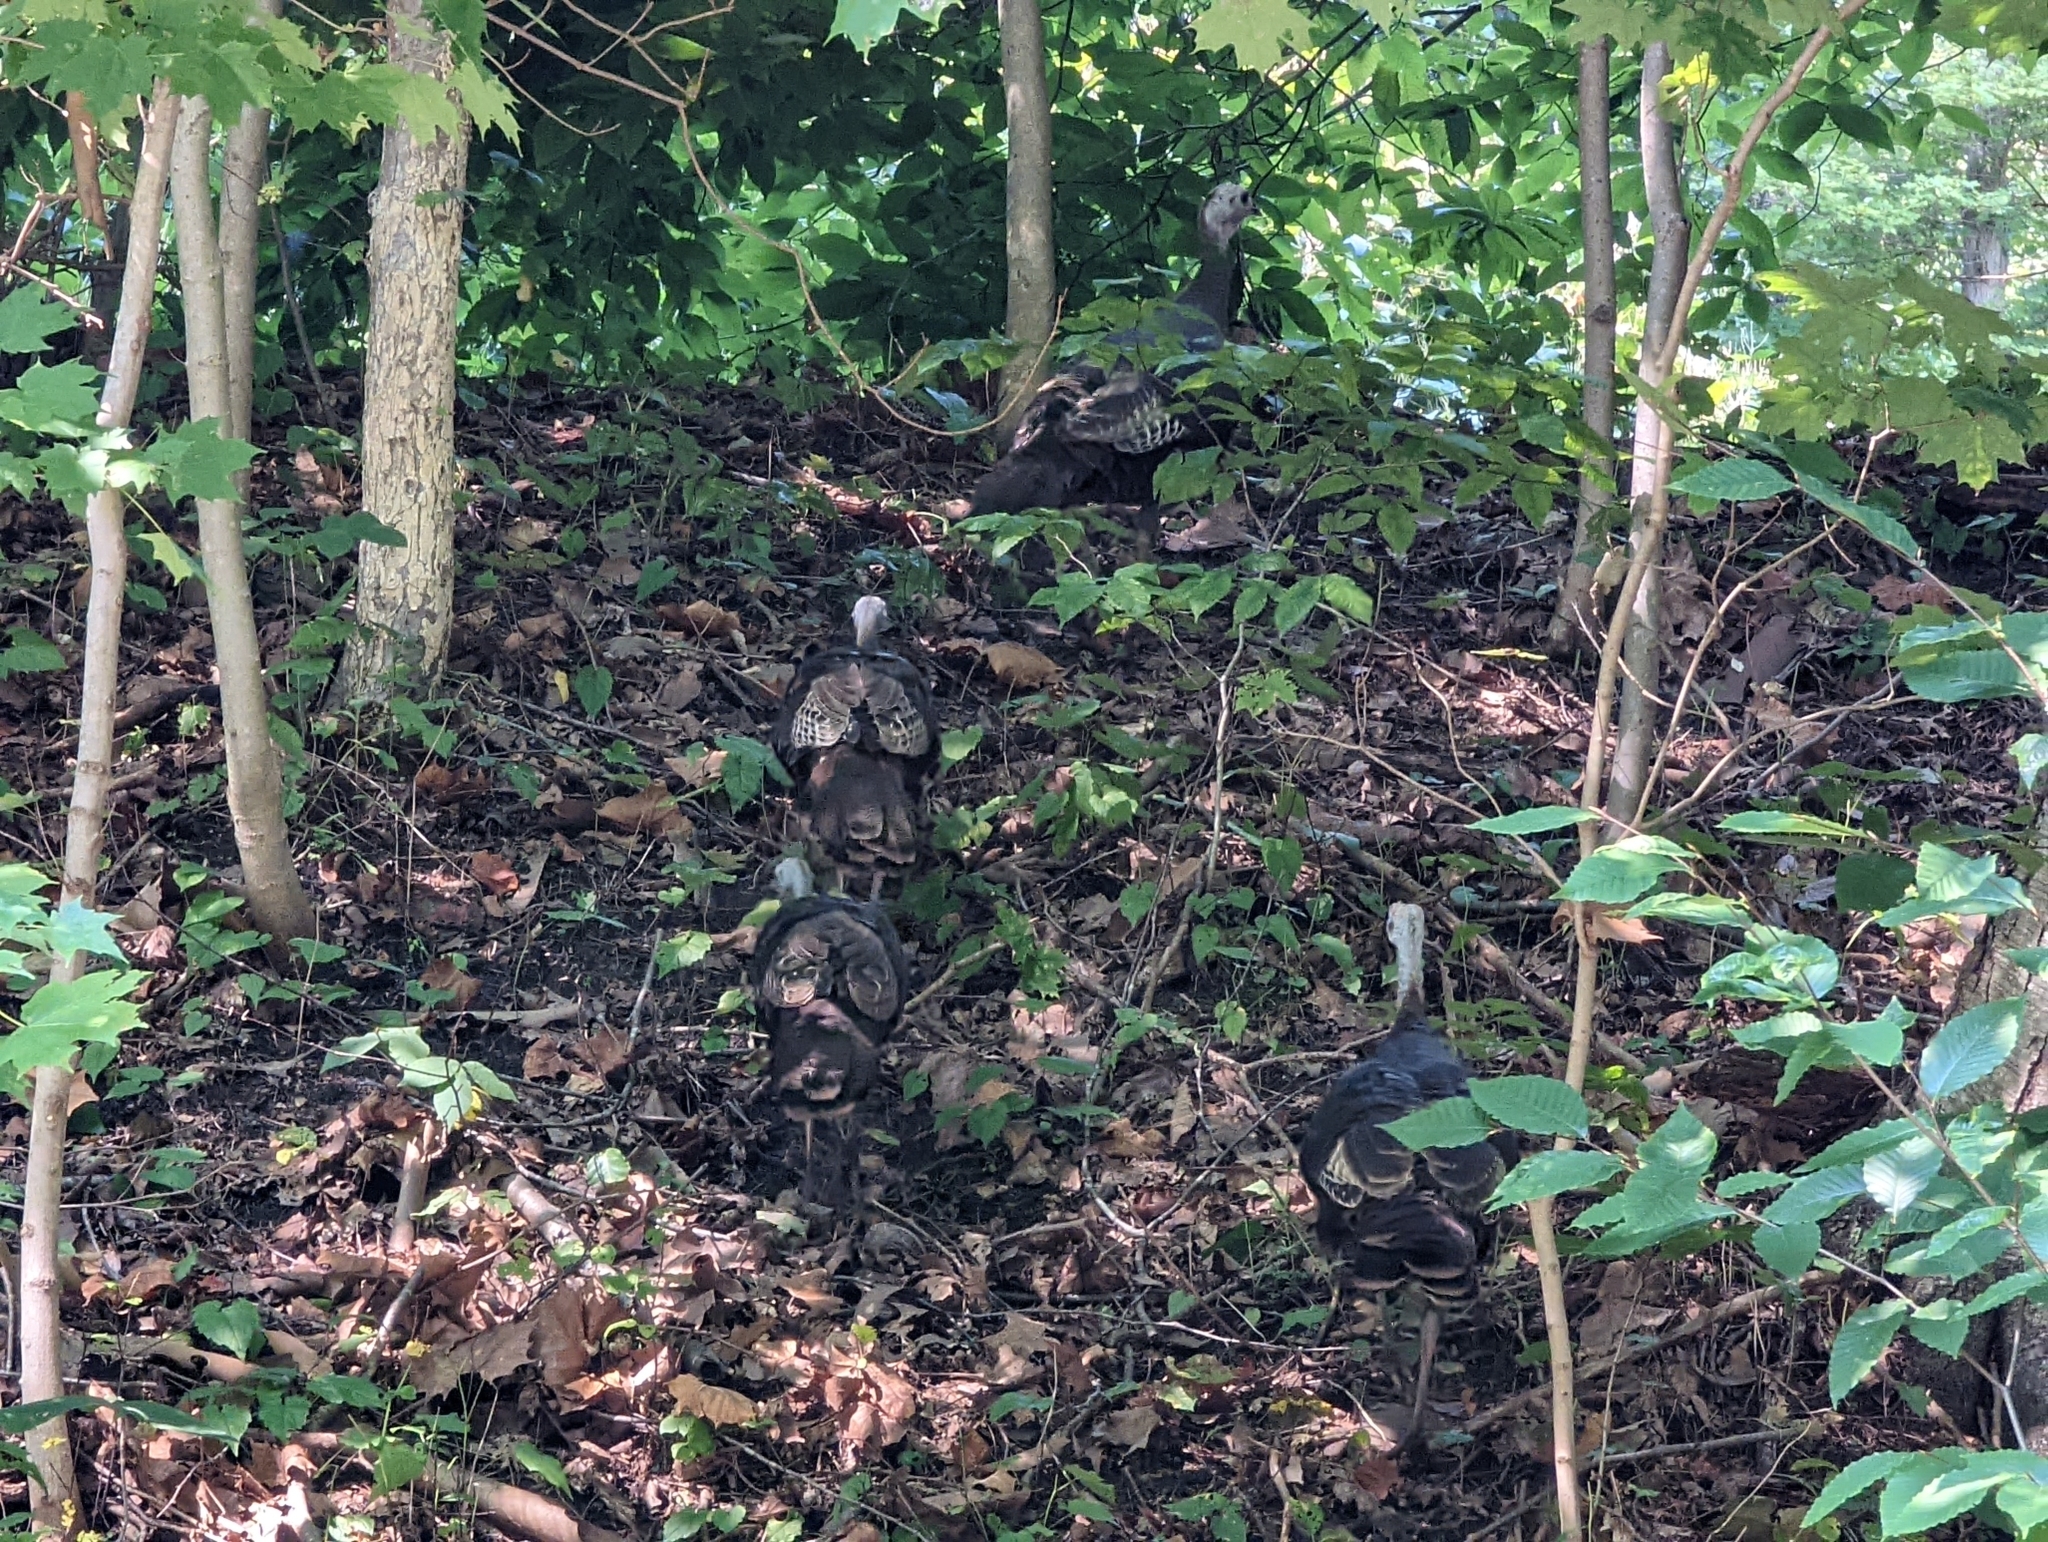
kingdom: Animalia
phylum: Chordata
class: Aves
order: Galliformes
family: Phasianidae
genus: Meleagris
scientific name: Meleagris gallopavo
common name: Wild turkey
